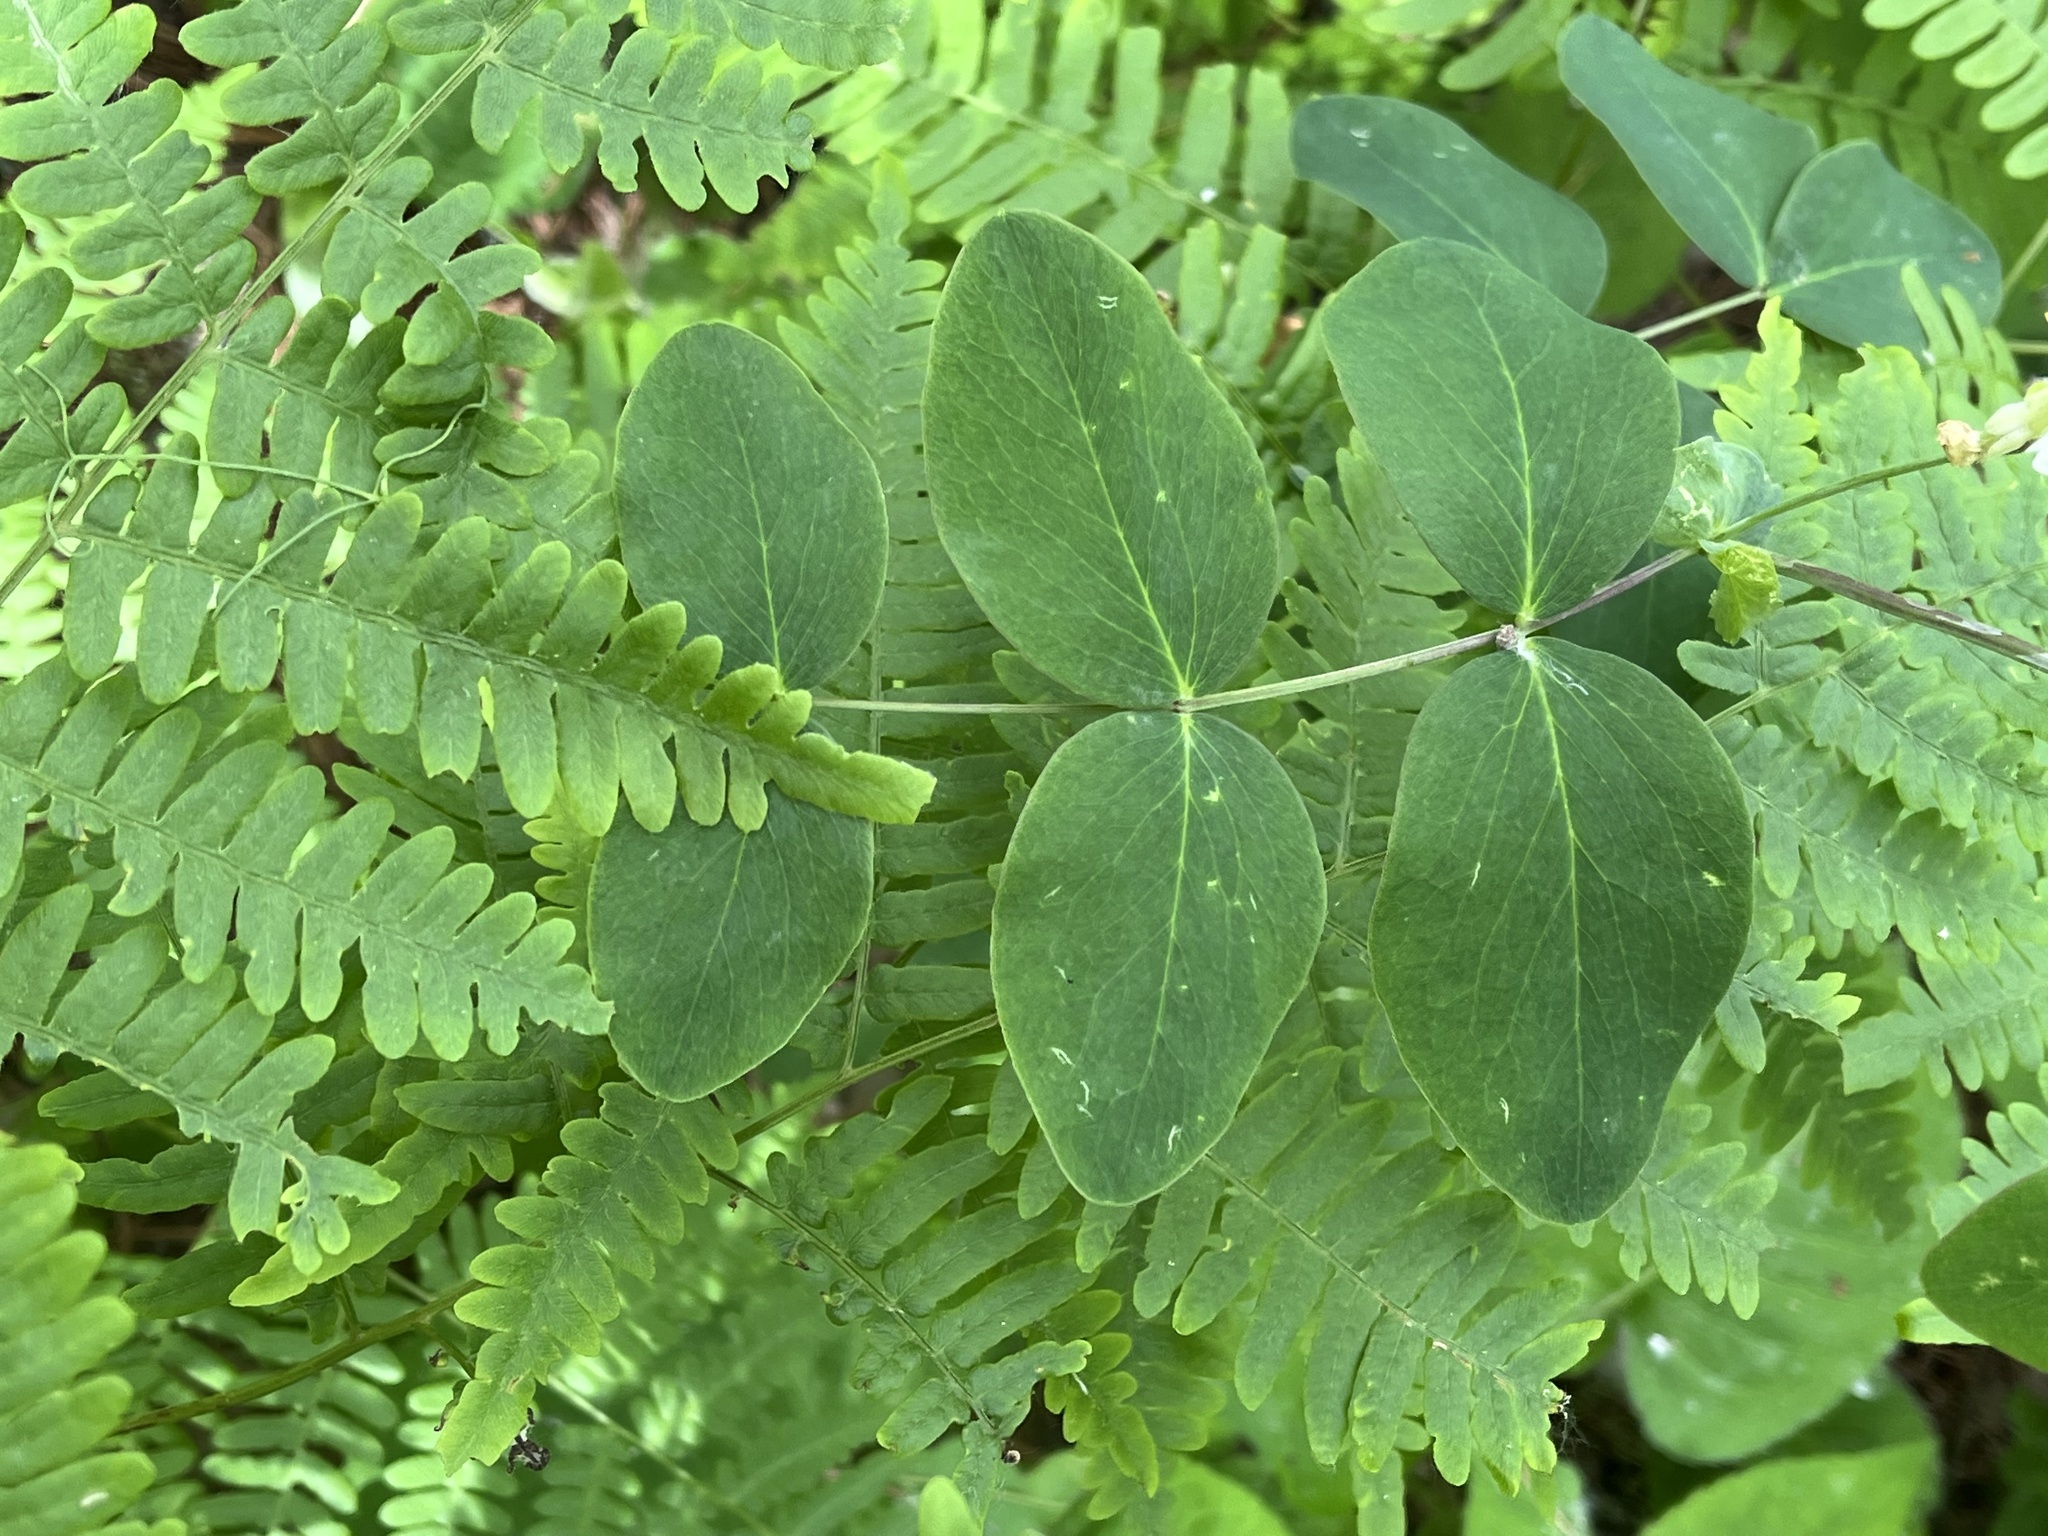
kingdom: Plantae
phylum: Tracheophyta
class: Magnoliopsida
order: Fabales
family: Fabaceae
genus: Lathyrus
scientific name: Lathyrus ochroleucus
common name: Pale vetchling
